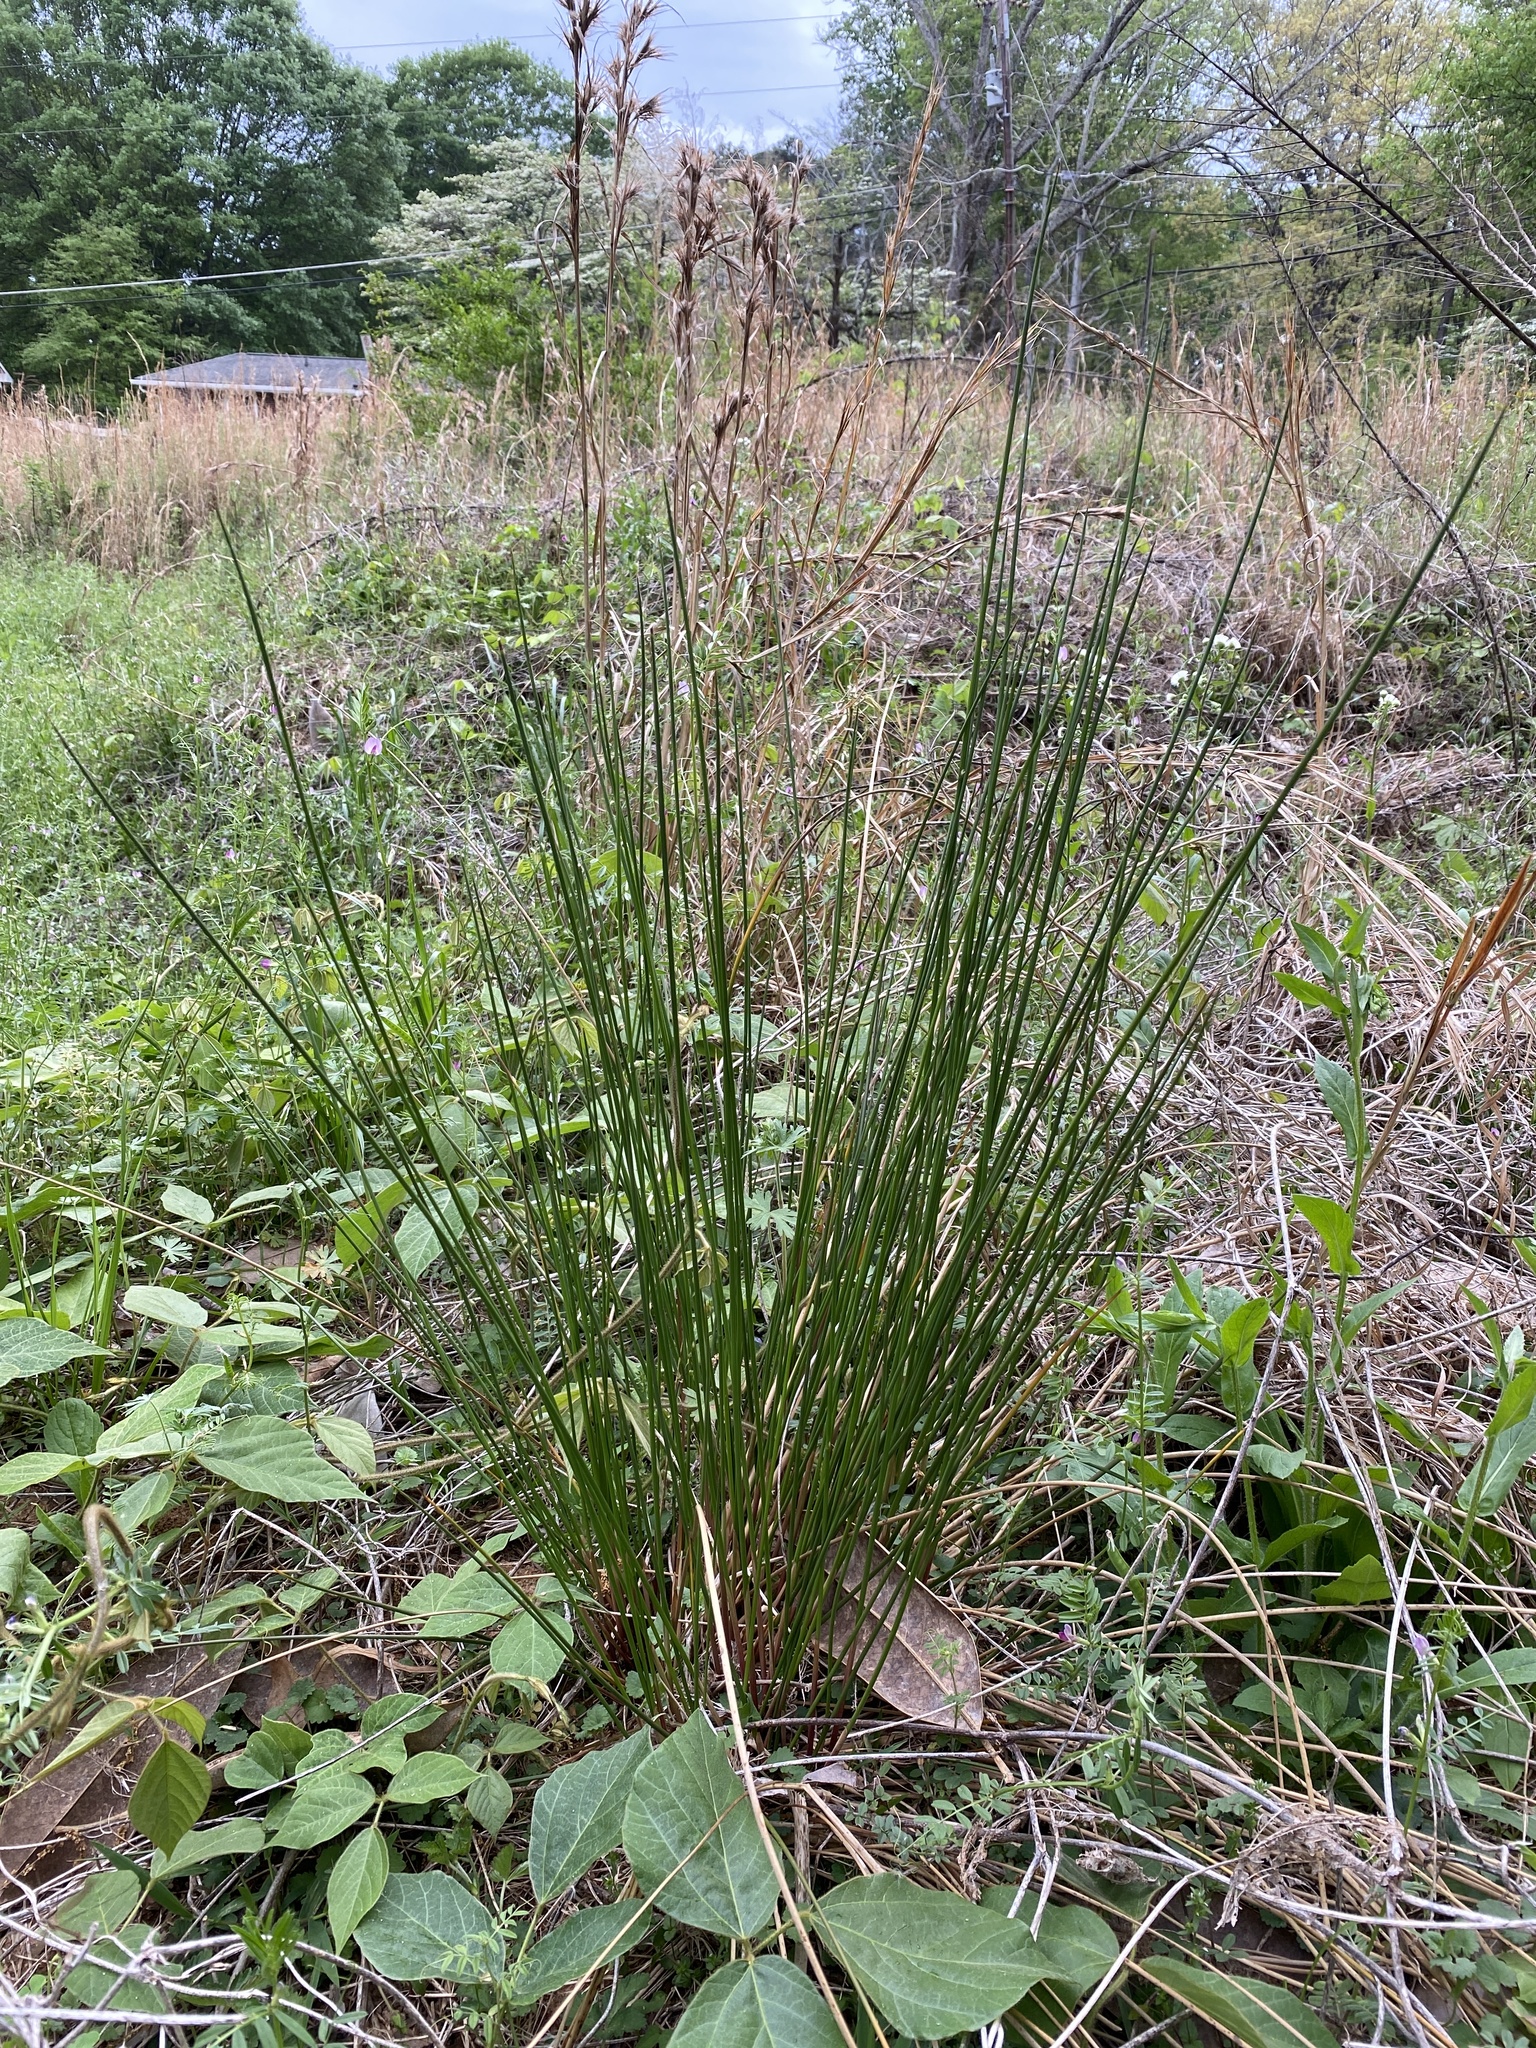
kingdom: Plantae
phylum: Tracheophyta
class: Liliopsida
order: Poales
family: Juncaceae
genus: Juncus
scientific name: Juncus effusus
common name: Soft rush
